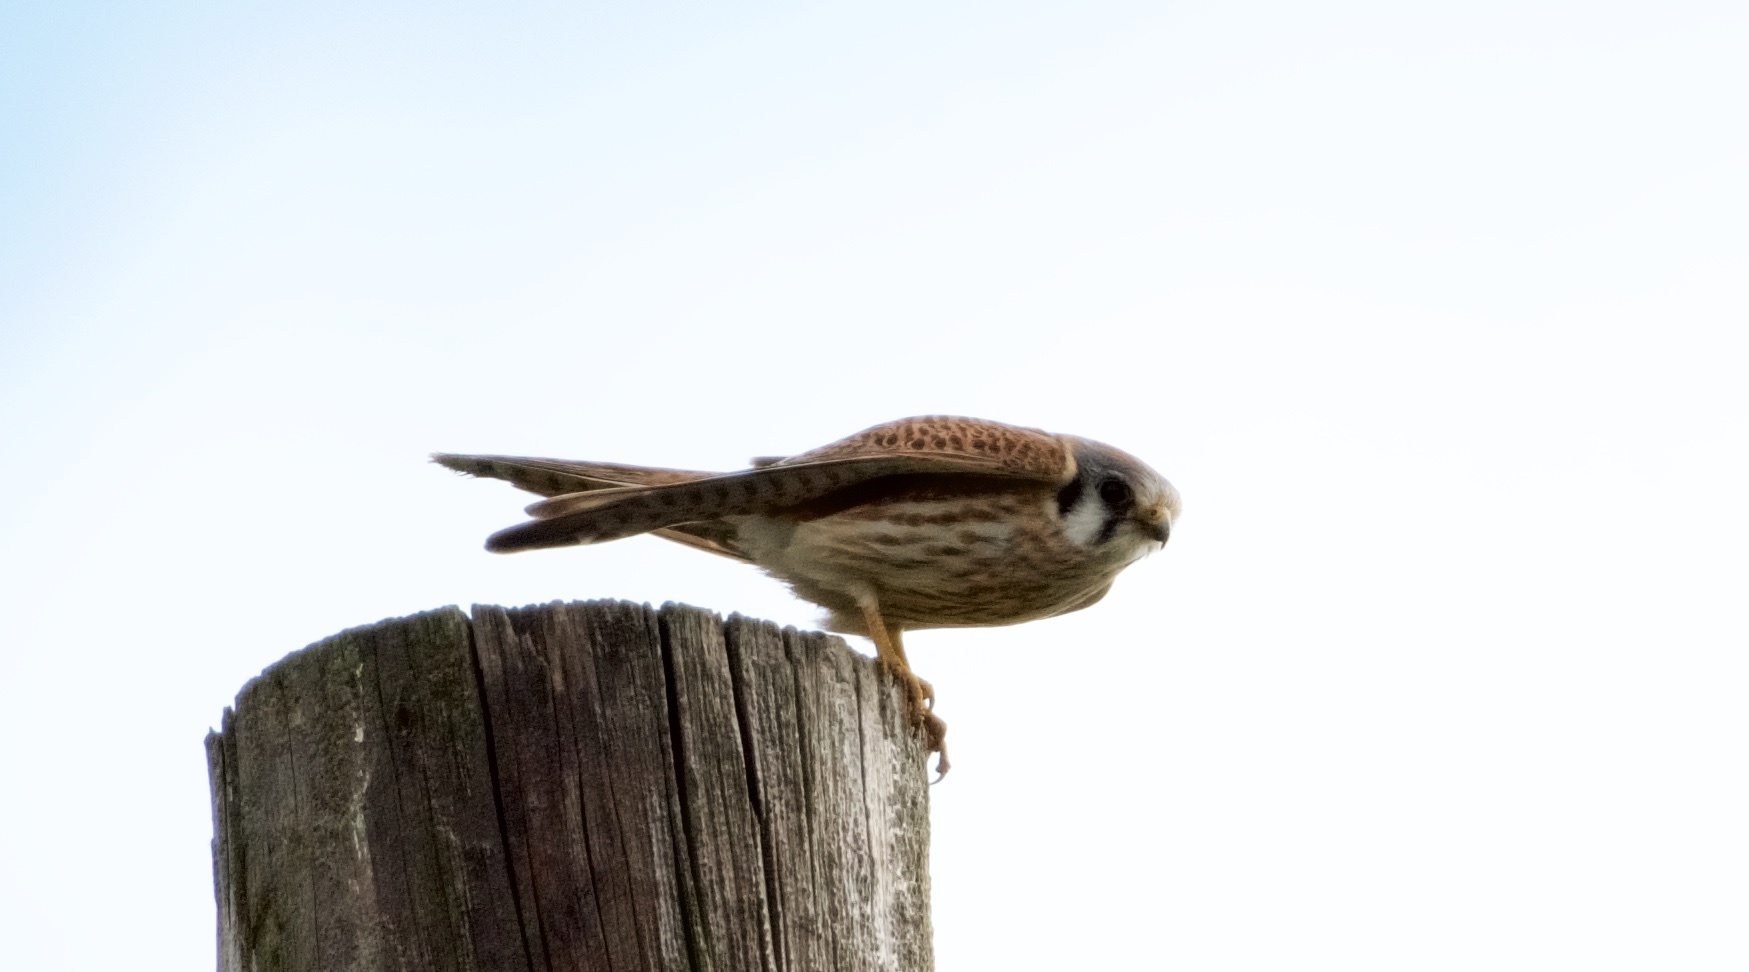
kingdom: Animalia
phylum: Chordata
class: Aves
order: Falconiformes
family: Falconidae
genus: Falco
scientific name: Falco sparverius
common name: American kestrel
